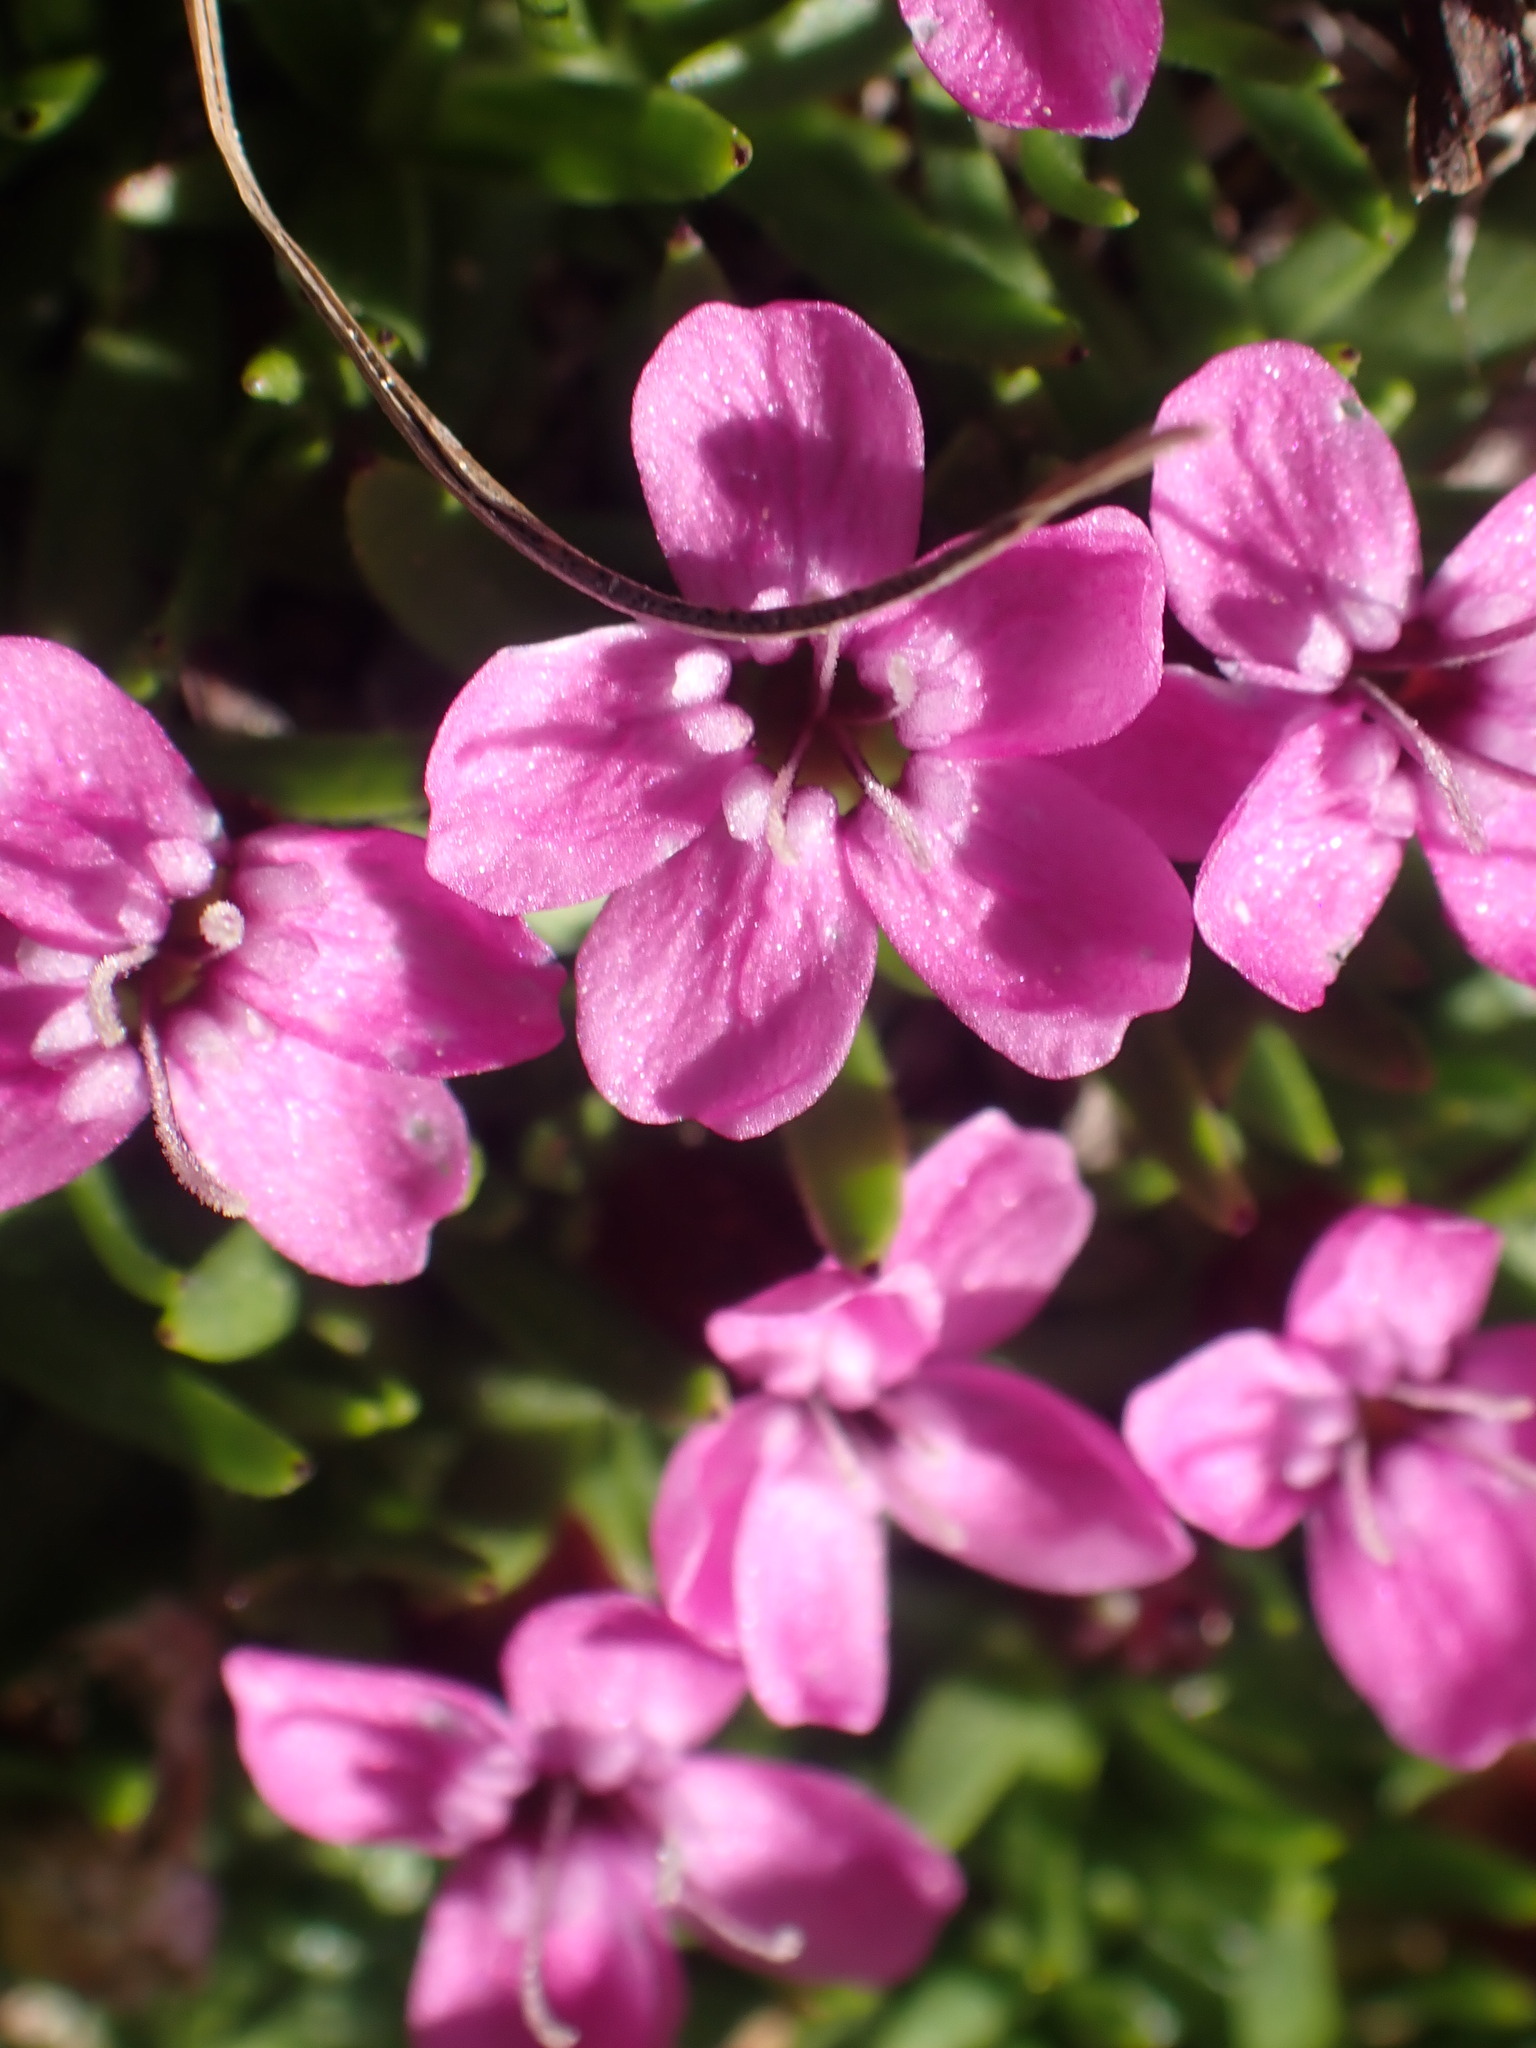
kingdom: Plantae
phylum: Tracheophyta
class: Magnoliopsida
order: Caryophyllales
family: Caryophyllaceae
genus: Silene
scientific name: Silene acaulis
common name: Moss campion
